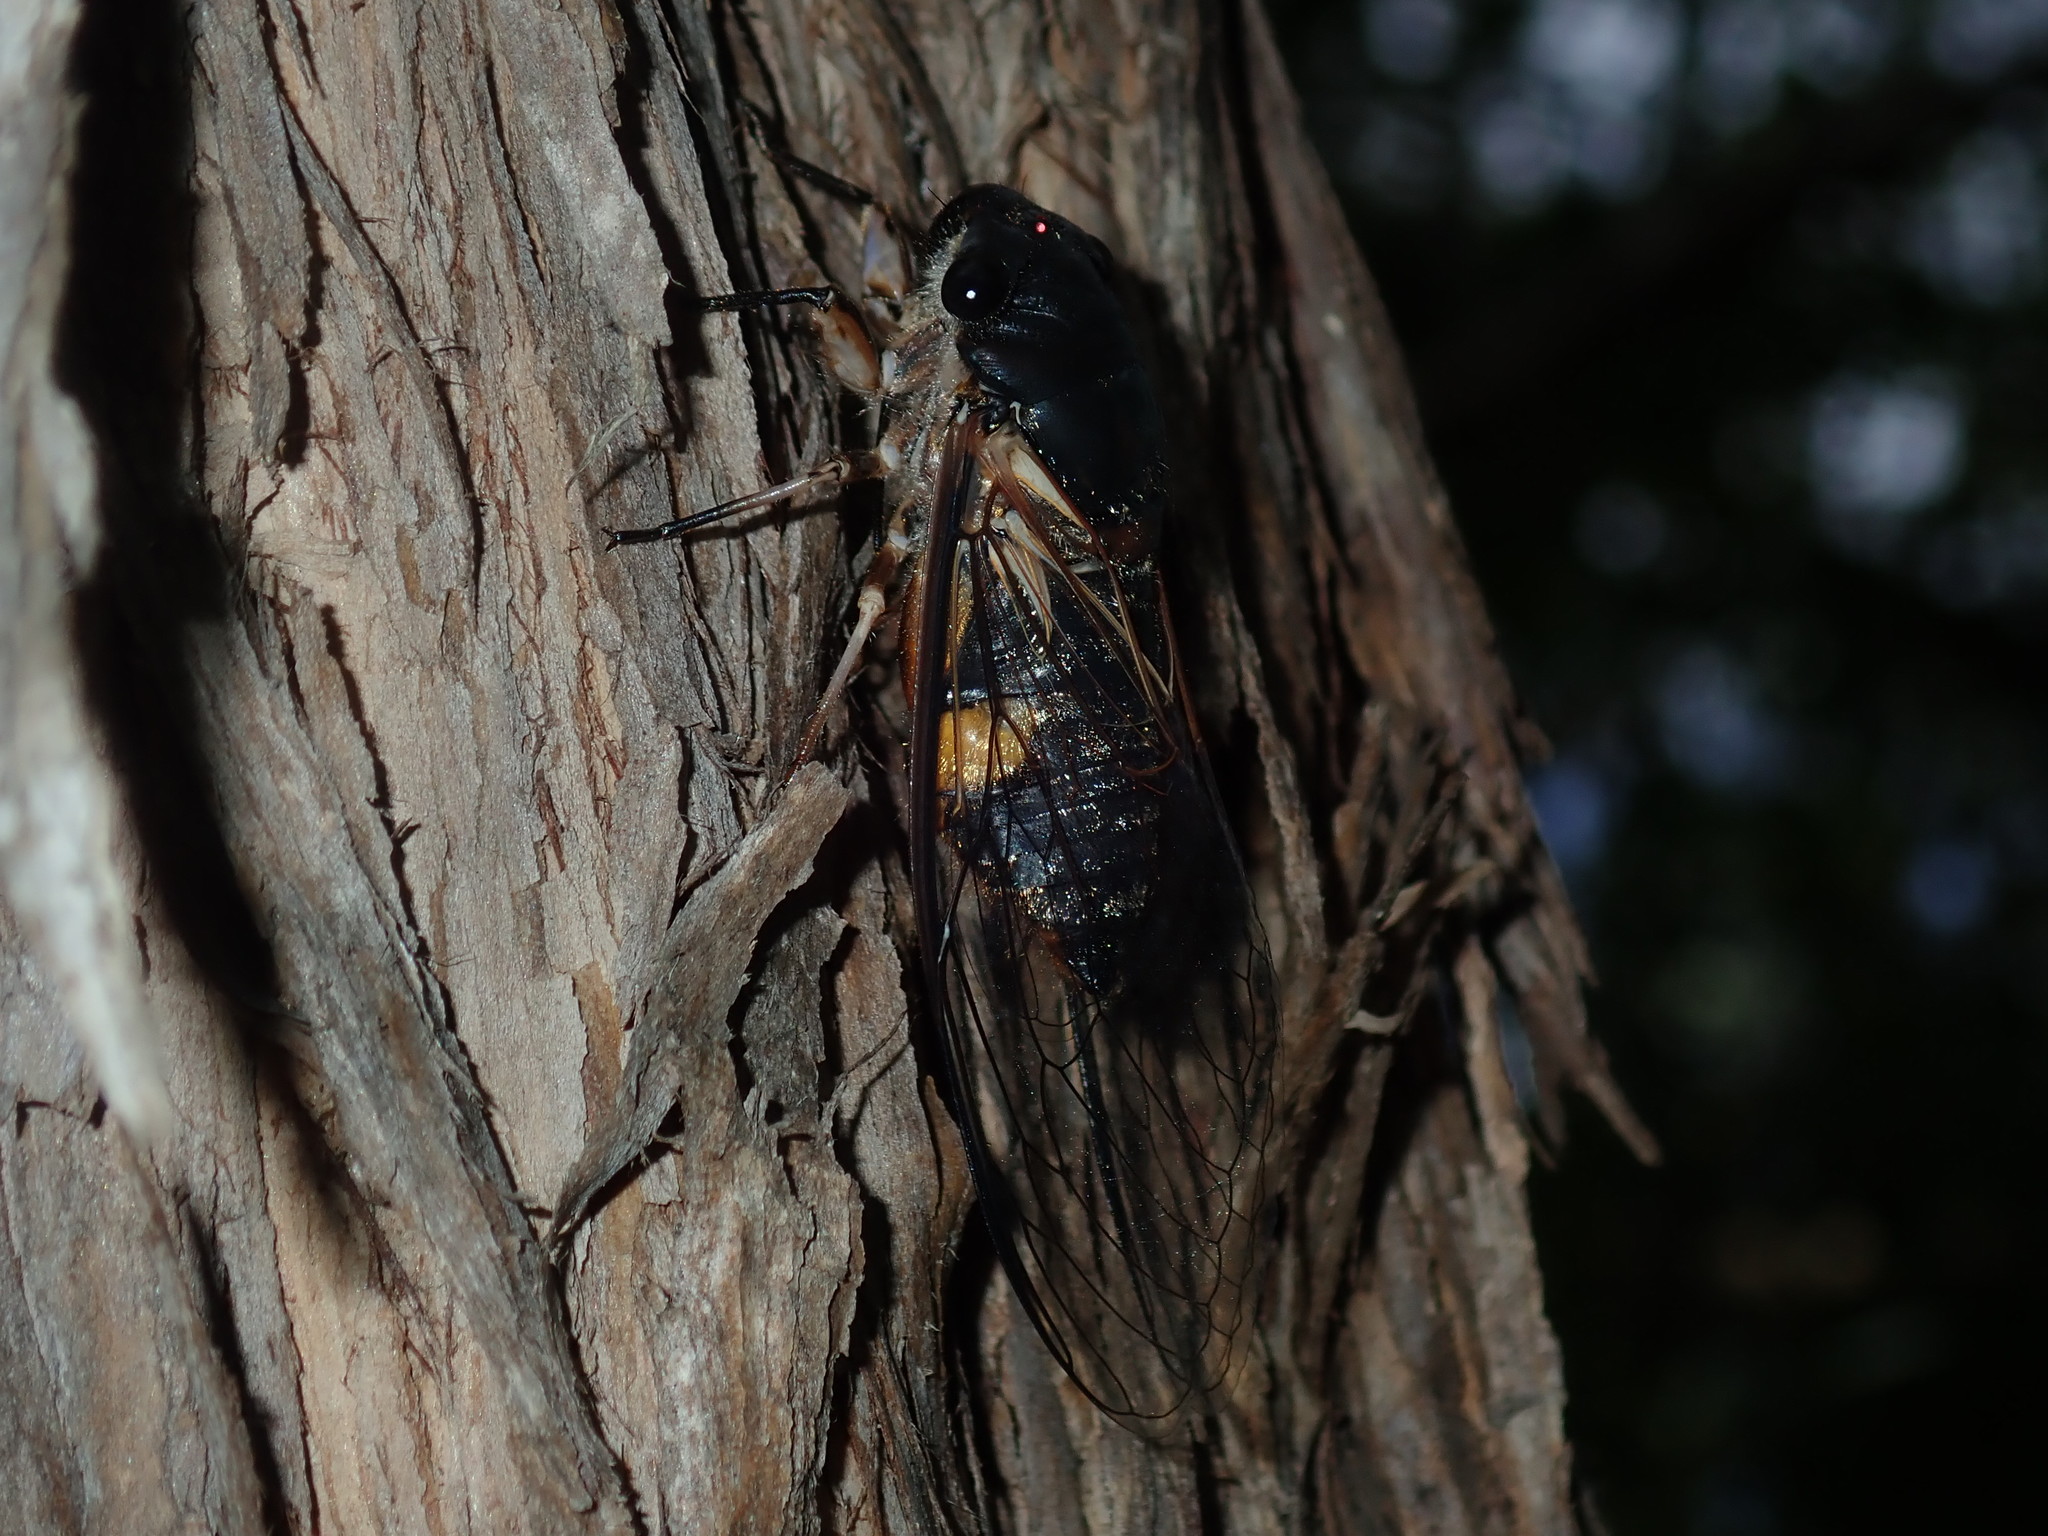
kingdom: Animalia
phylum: Arthropoda
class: Insecta
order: Hemiptera
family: Cicadidae
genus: Psaltoda
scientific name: Psaltoda harrisii
